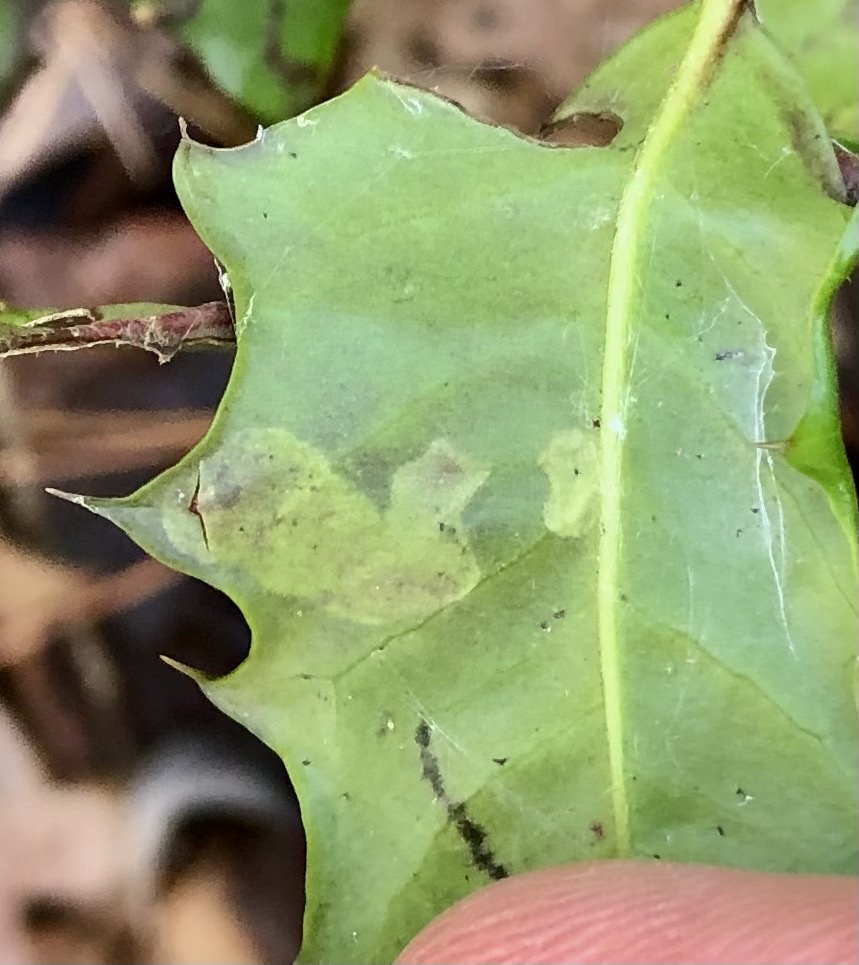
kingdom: Animalia
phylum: Arthropoda
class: Insecta
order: Diptera
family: Agromyzidae
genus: Phytomyza
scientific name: Phytomyza ilicicola
